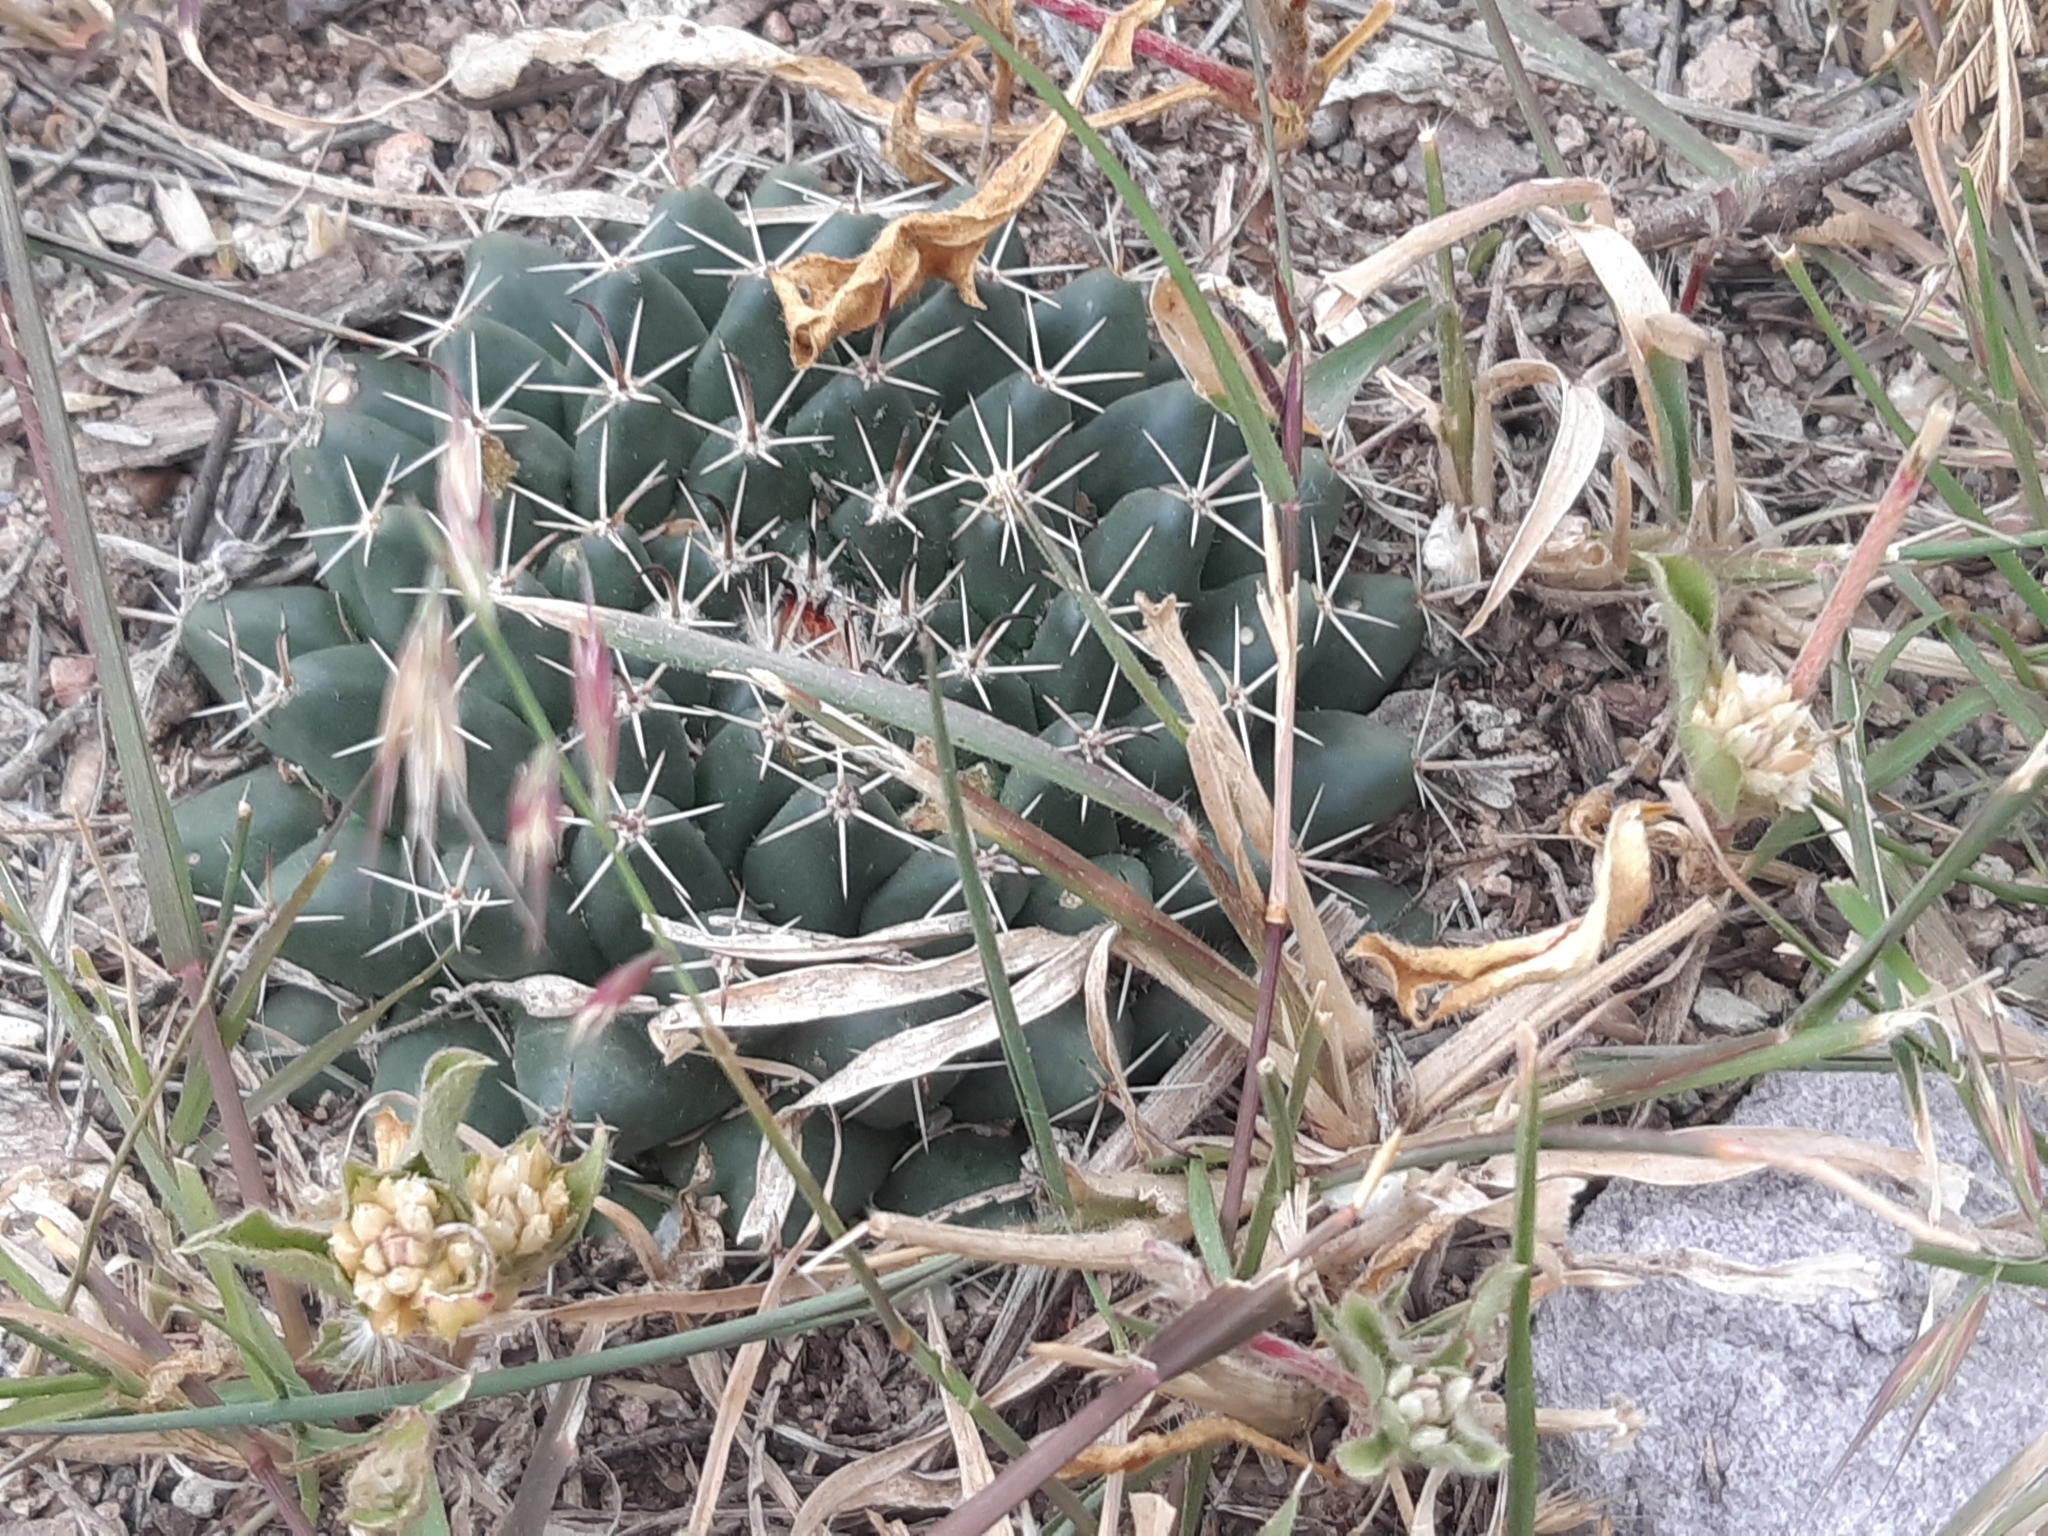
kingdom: Plantae
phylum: Tracheophyta
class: Magnoliopsida
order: Caryophyllales
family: Cactaceae
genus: Mammillaria
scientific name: Mammillaria uncinata
